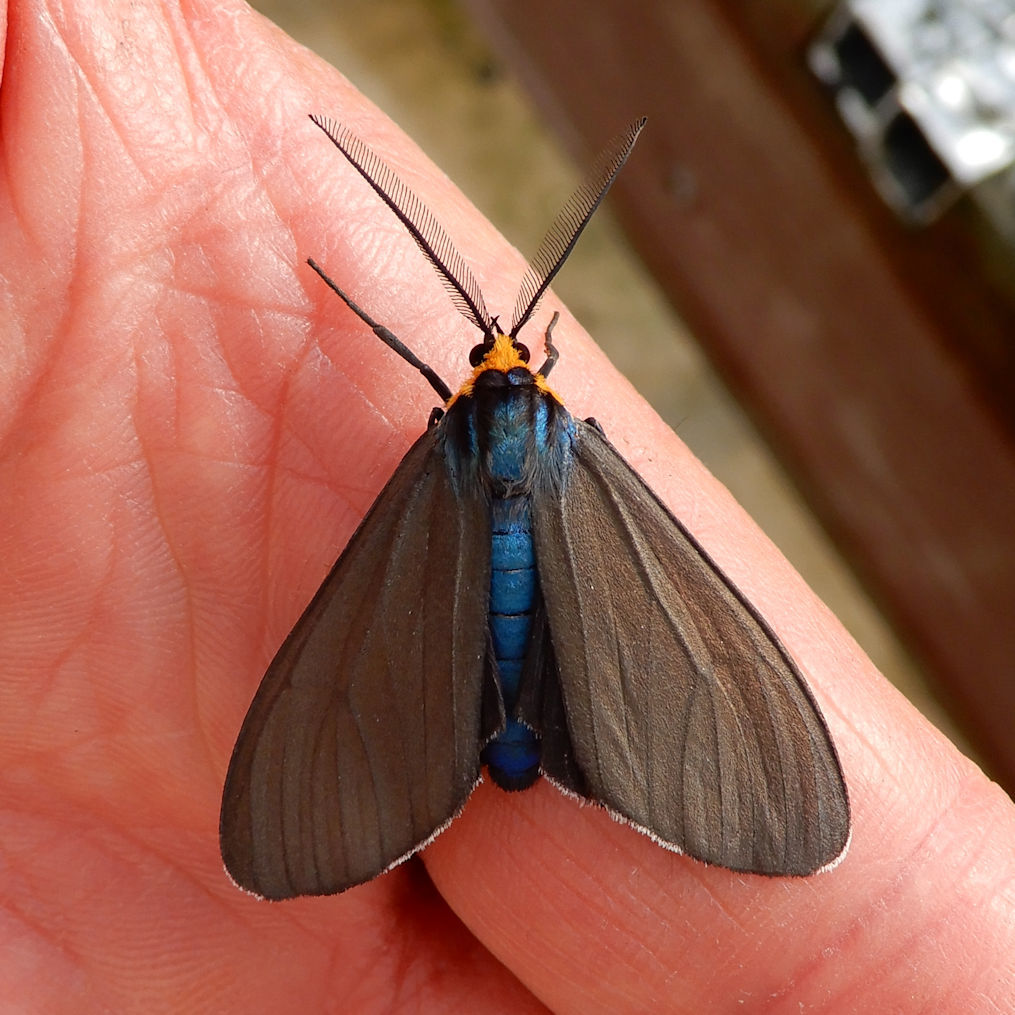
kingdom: Animalia
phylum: Arthropoda
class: Insecta
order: Lepidoptera
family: Erebidae
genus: Ctenucha
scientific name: Ctenucha virginica
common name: Virginia ctenucha moth
